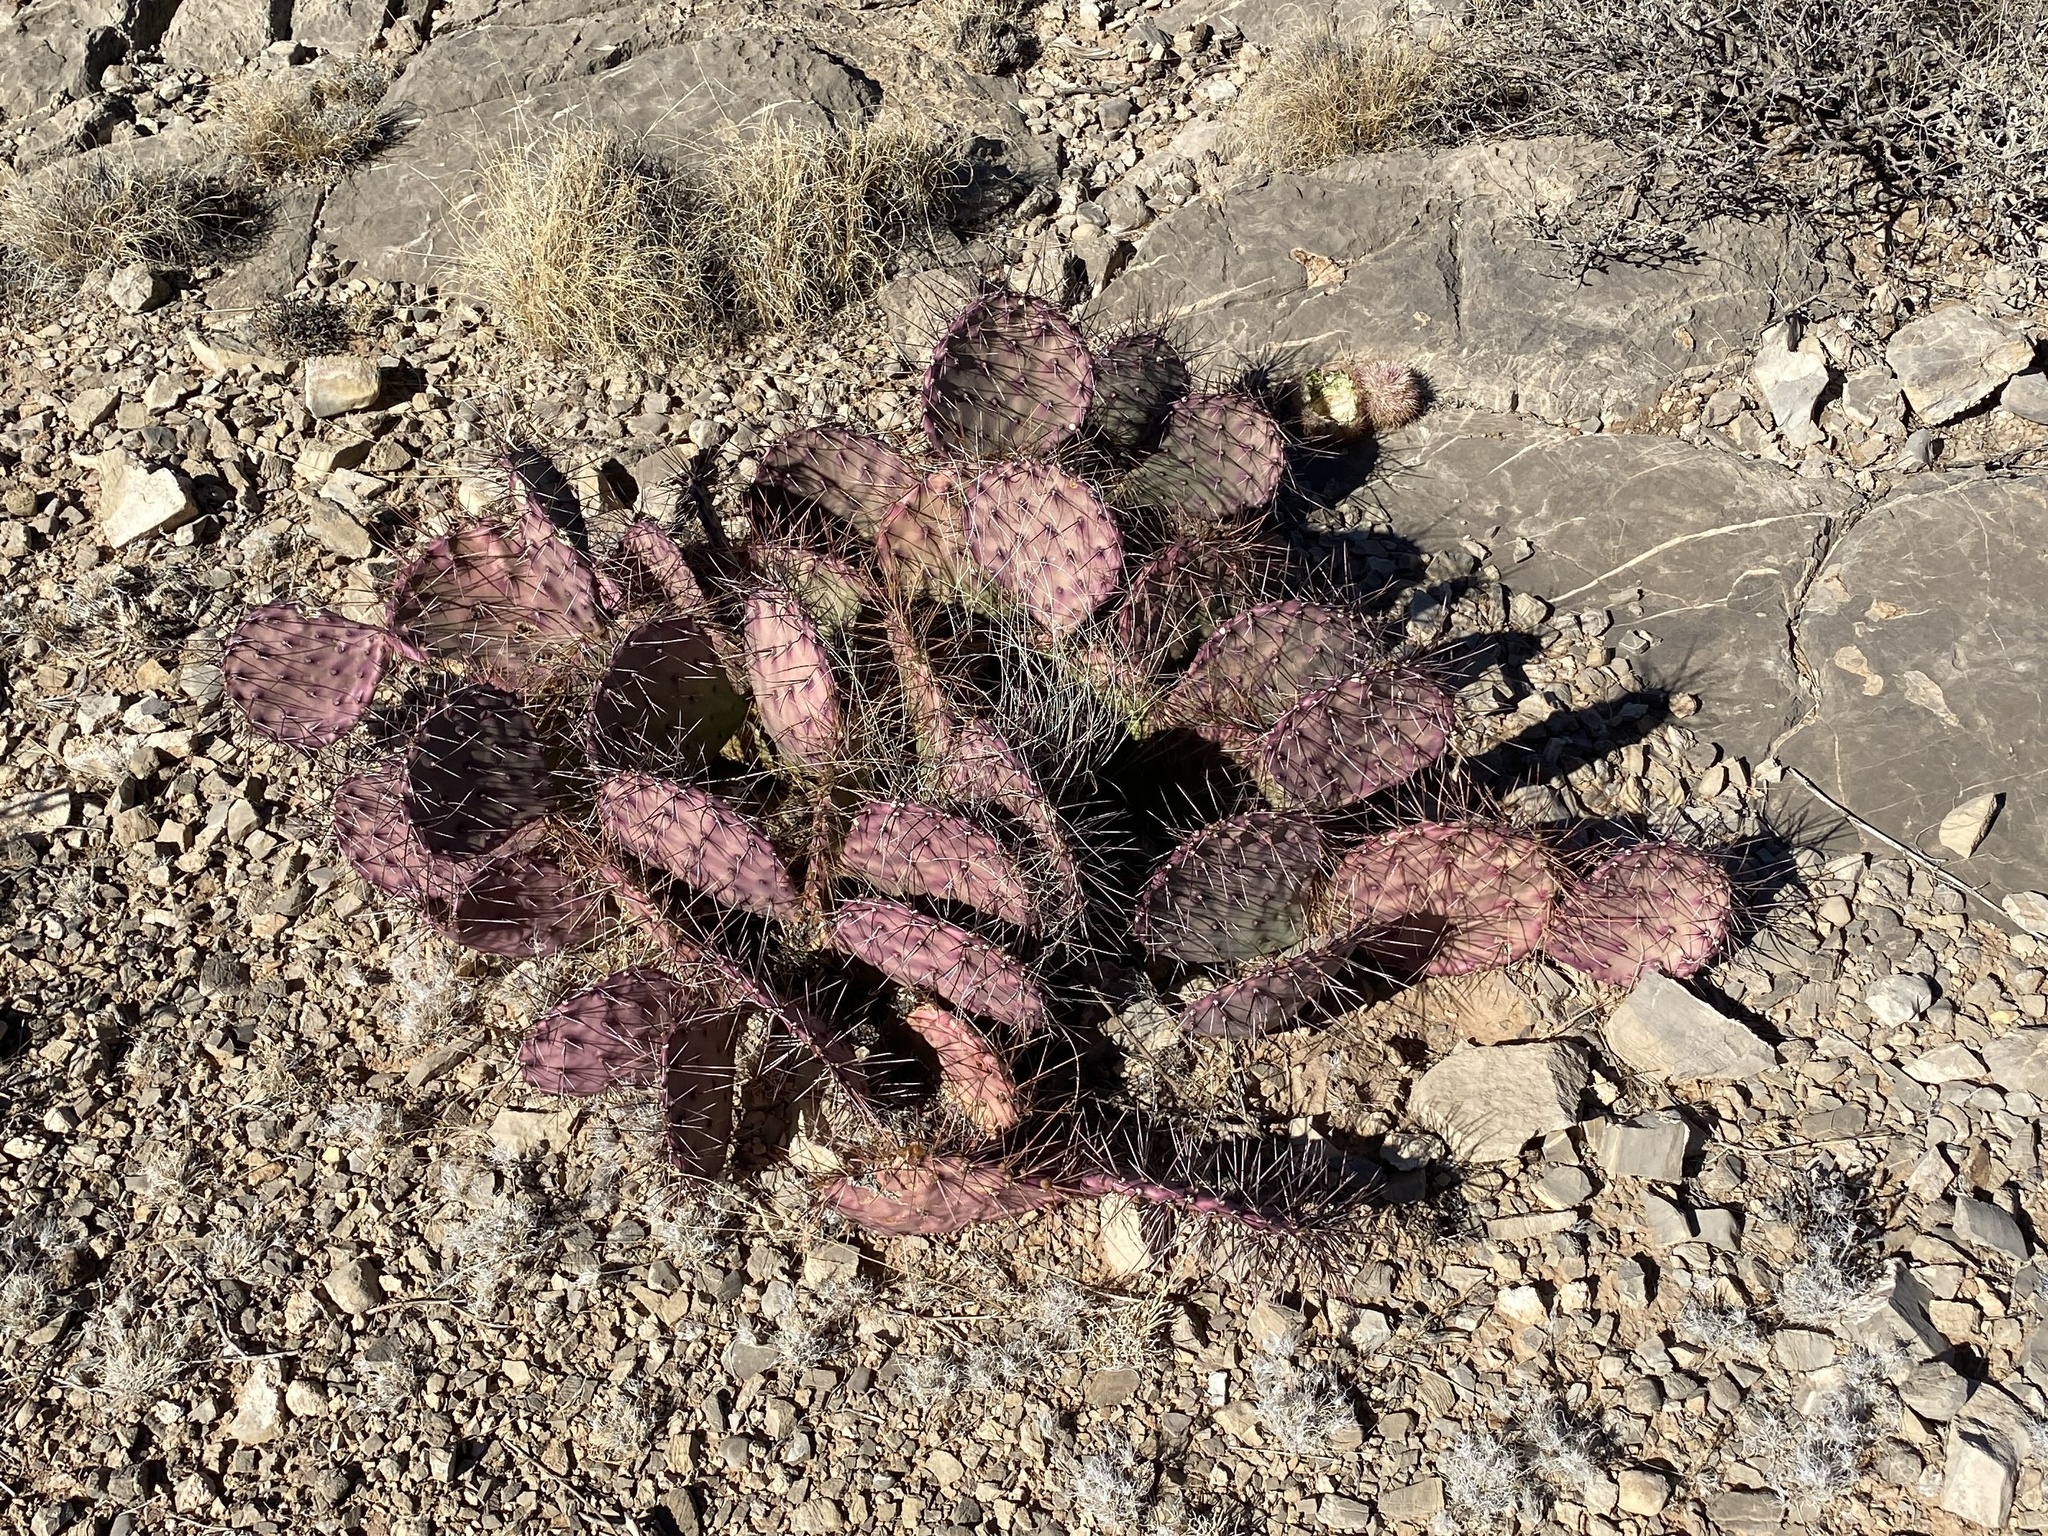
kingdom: Plantae
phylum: Tracheophyta
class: Magnoliopsida
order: Caryophyllales
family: Cactaceae
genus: Opuntia
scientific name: Opuntia macrocentra
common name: Purple prickly-pear
